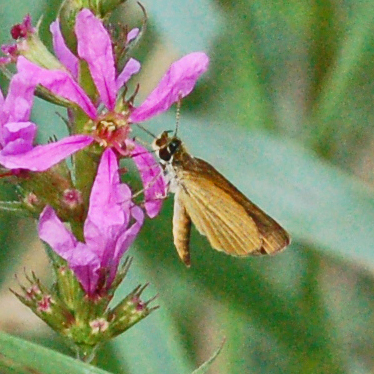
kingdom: Animalia
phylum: Arthropoda
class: Insecta
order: Lepidoptera
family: Hesperiidae
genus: Ancyloxypha
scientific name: Ancyloxypha numitor
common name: Least skipper
